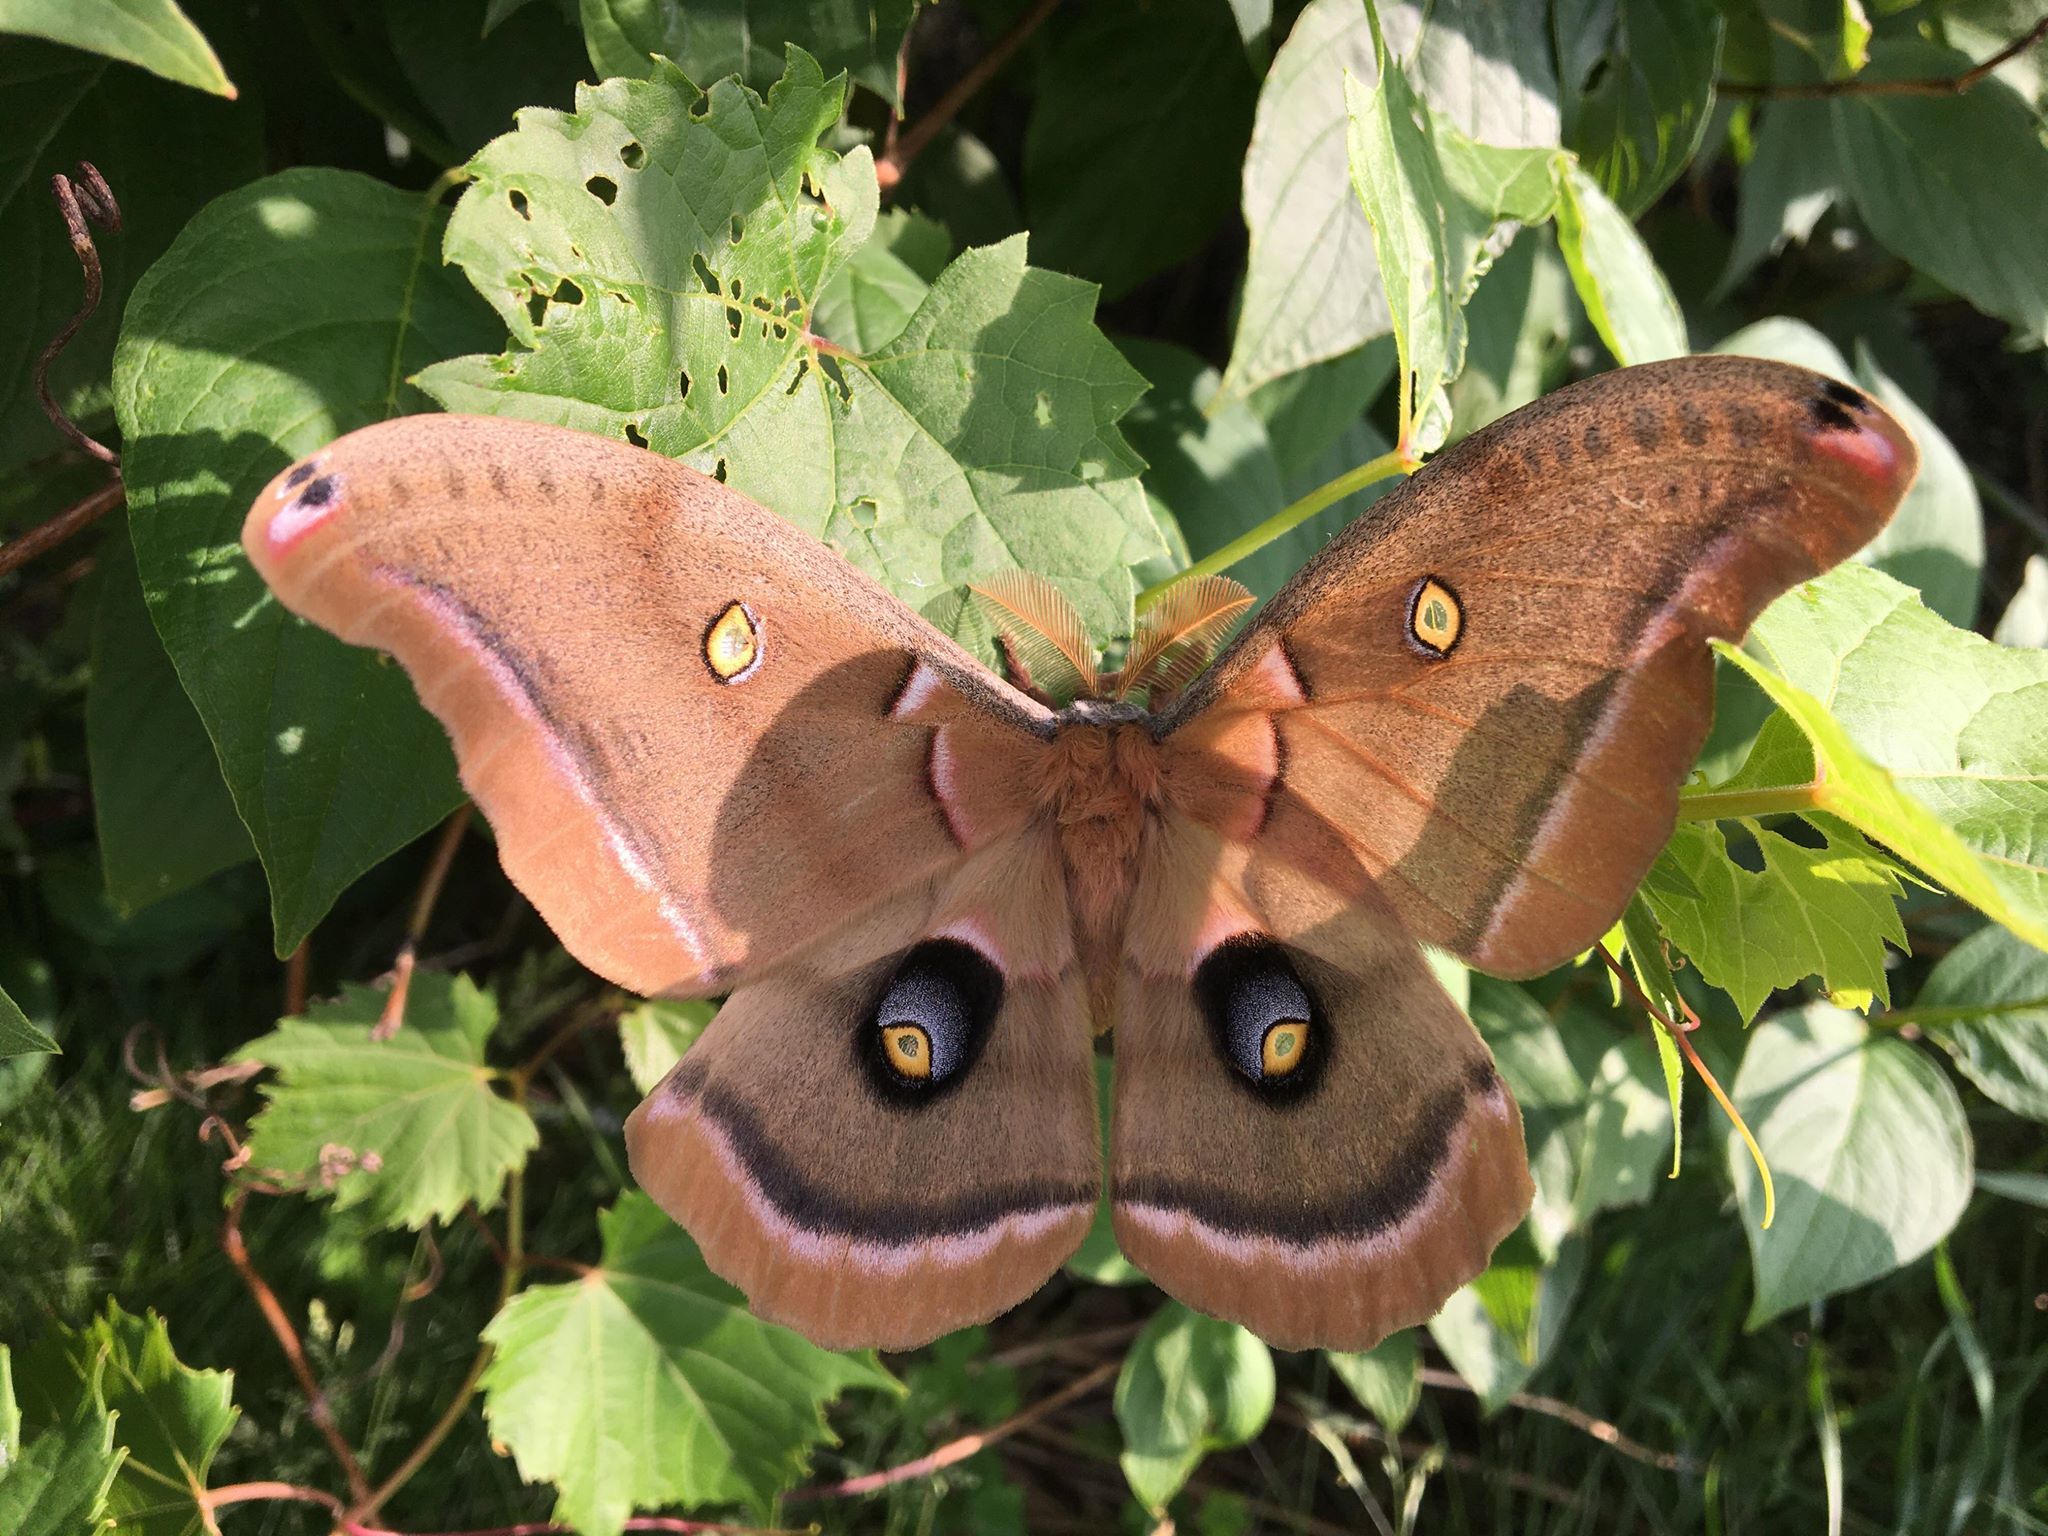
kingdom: Animalia
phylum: Arthropoda
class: Insecta
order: Lepidoptera
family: Saturniidae
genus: Antheraea
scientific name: Antheraea polyphemus
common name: Polyphemus moth
